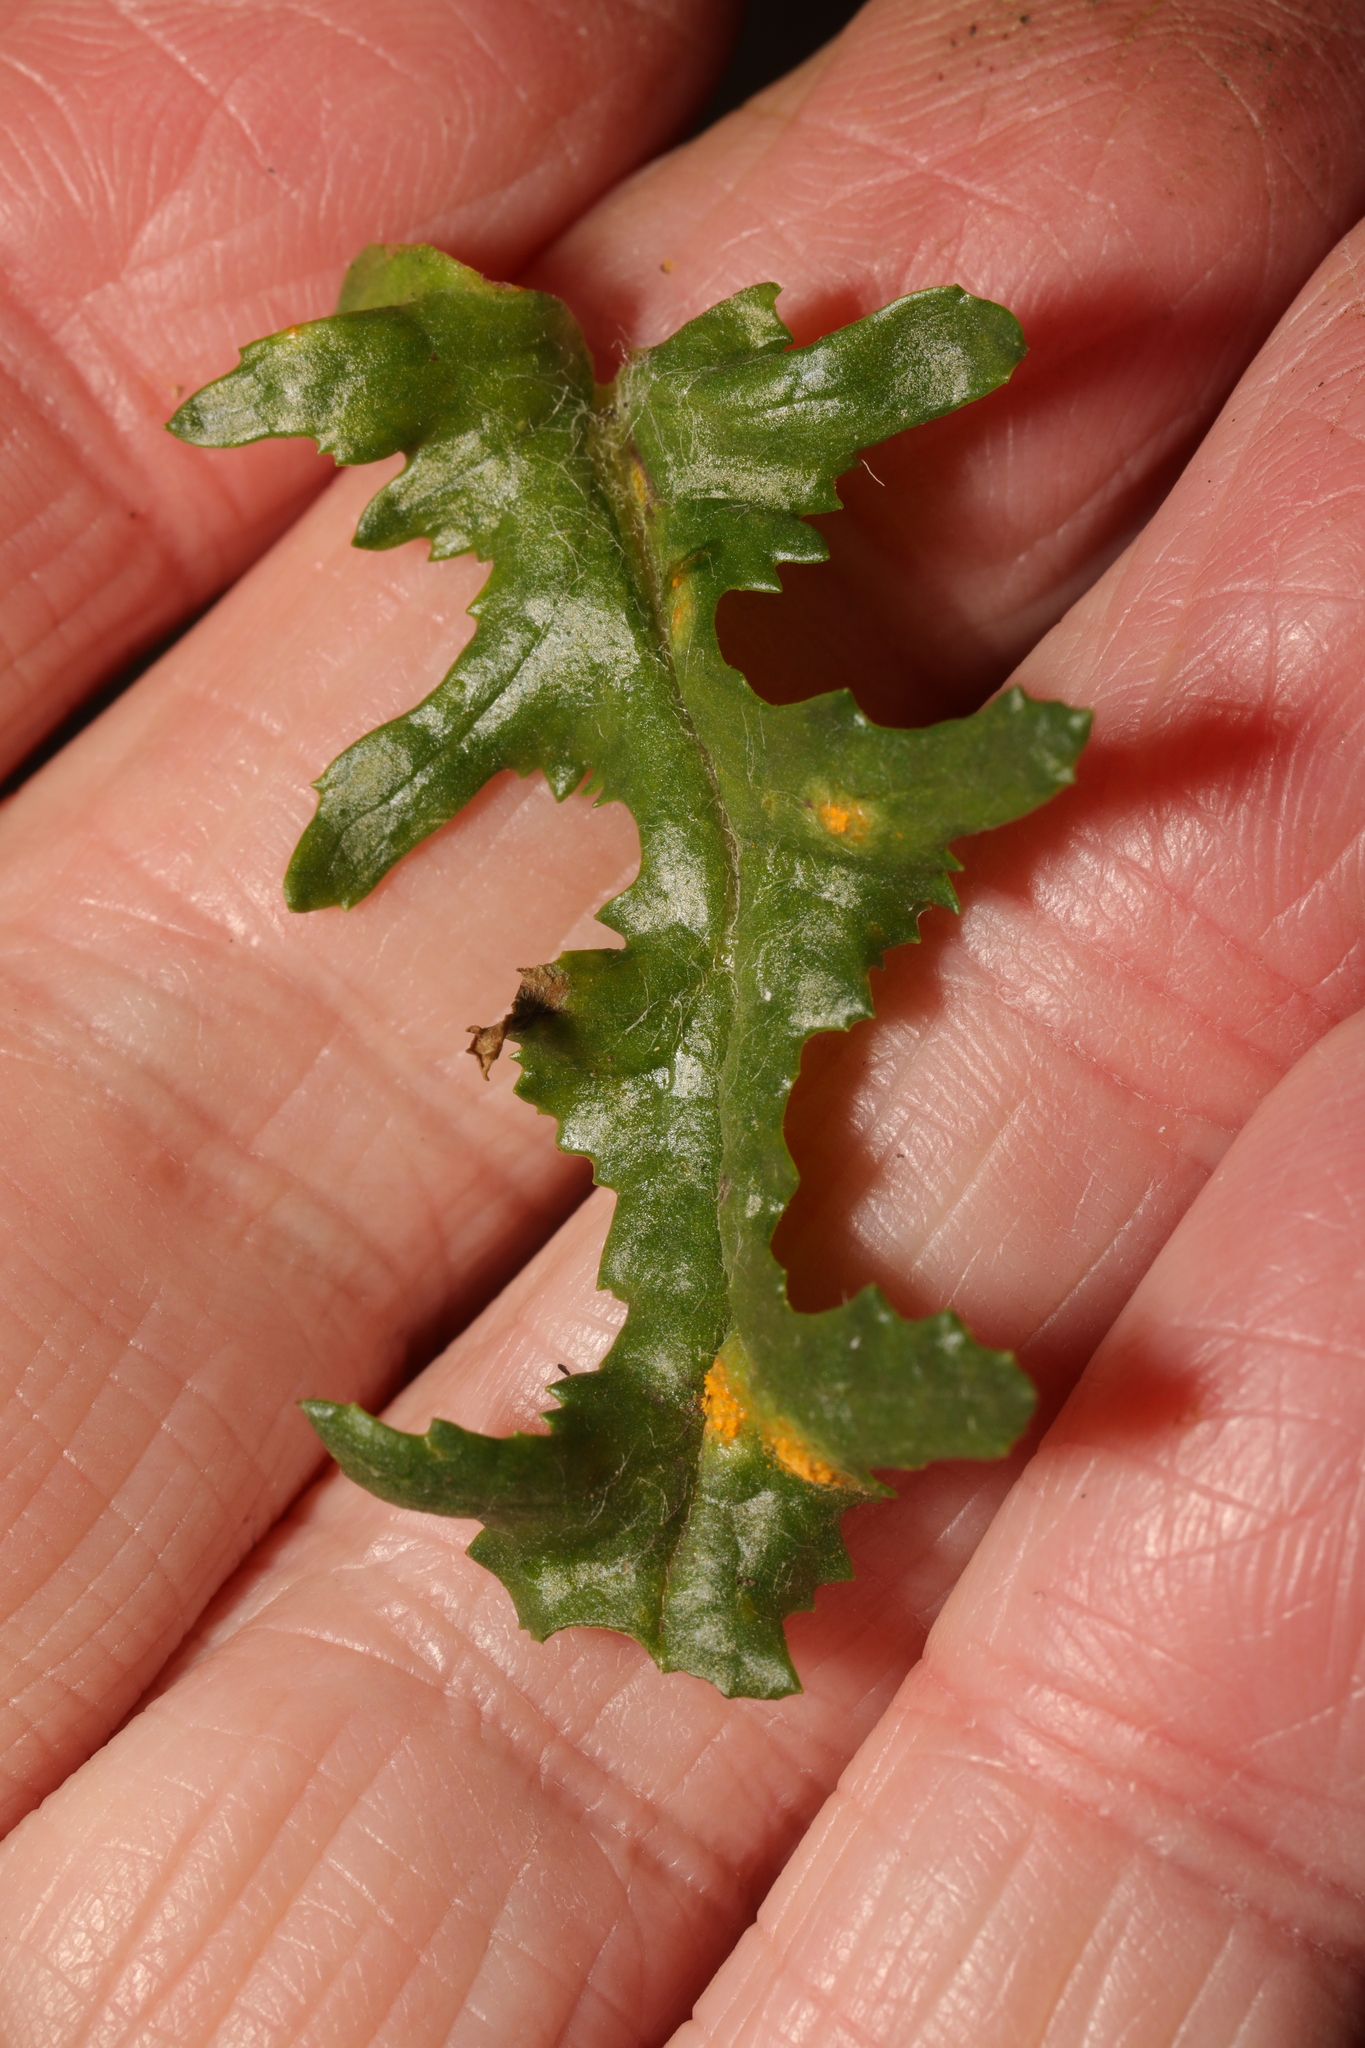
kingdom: Fungi
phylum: Basidiomycota
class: Pucciniomycetes
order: Pucciniales
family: Pucciniaceae
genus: Puccinia
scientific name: Puccinia lagenophorae
